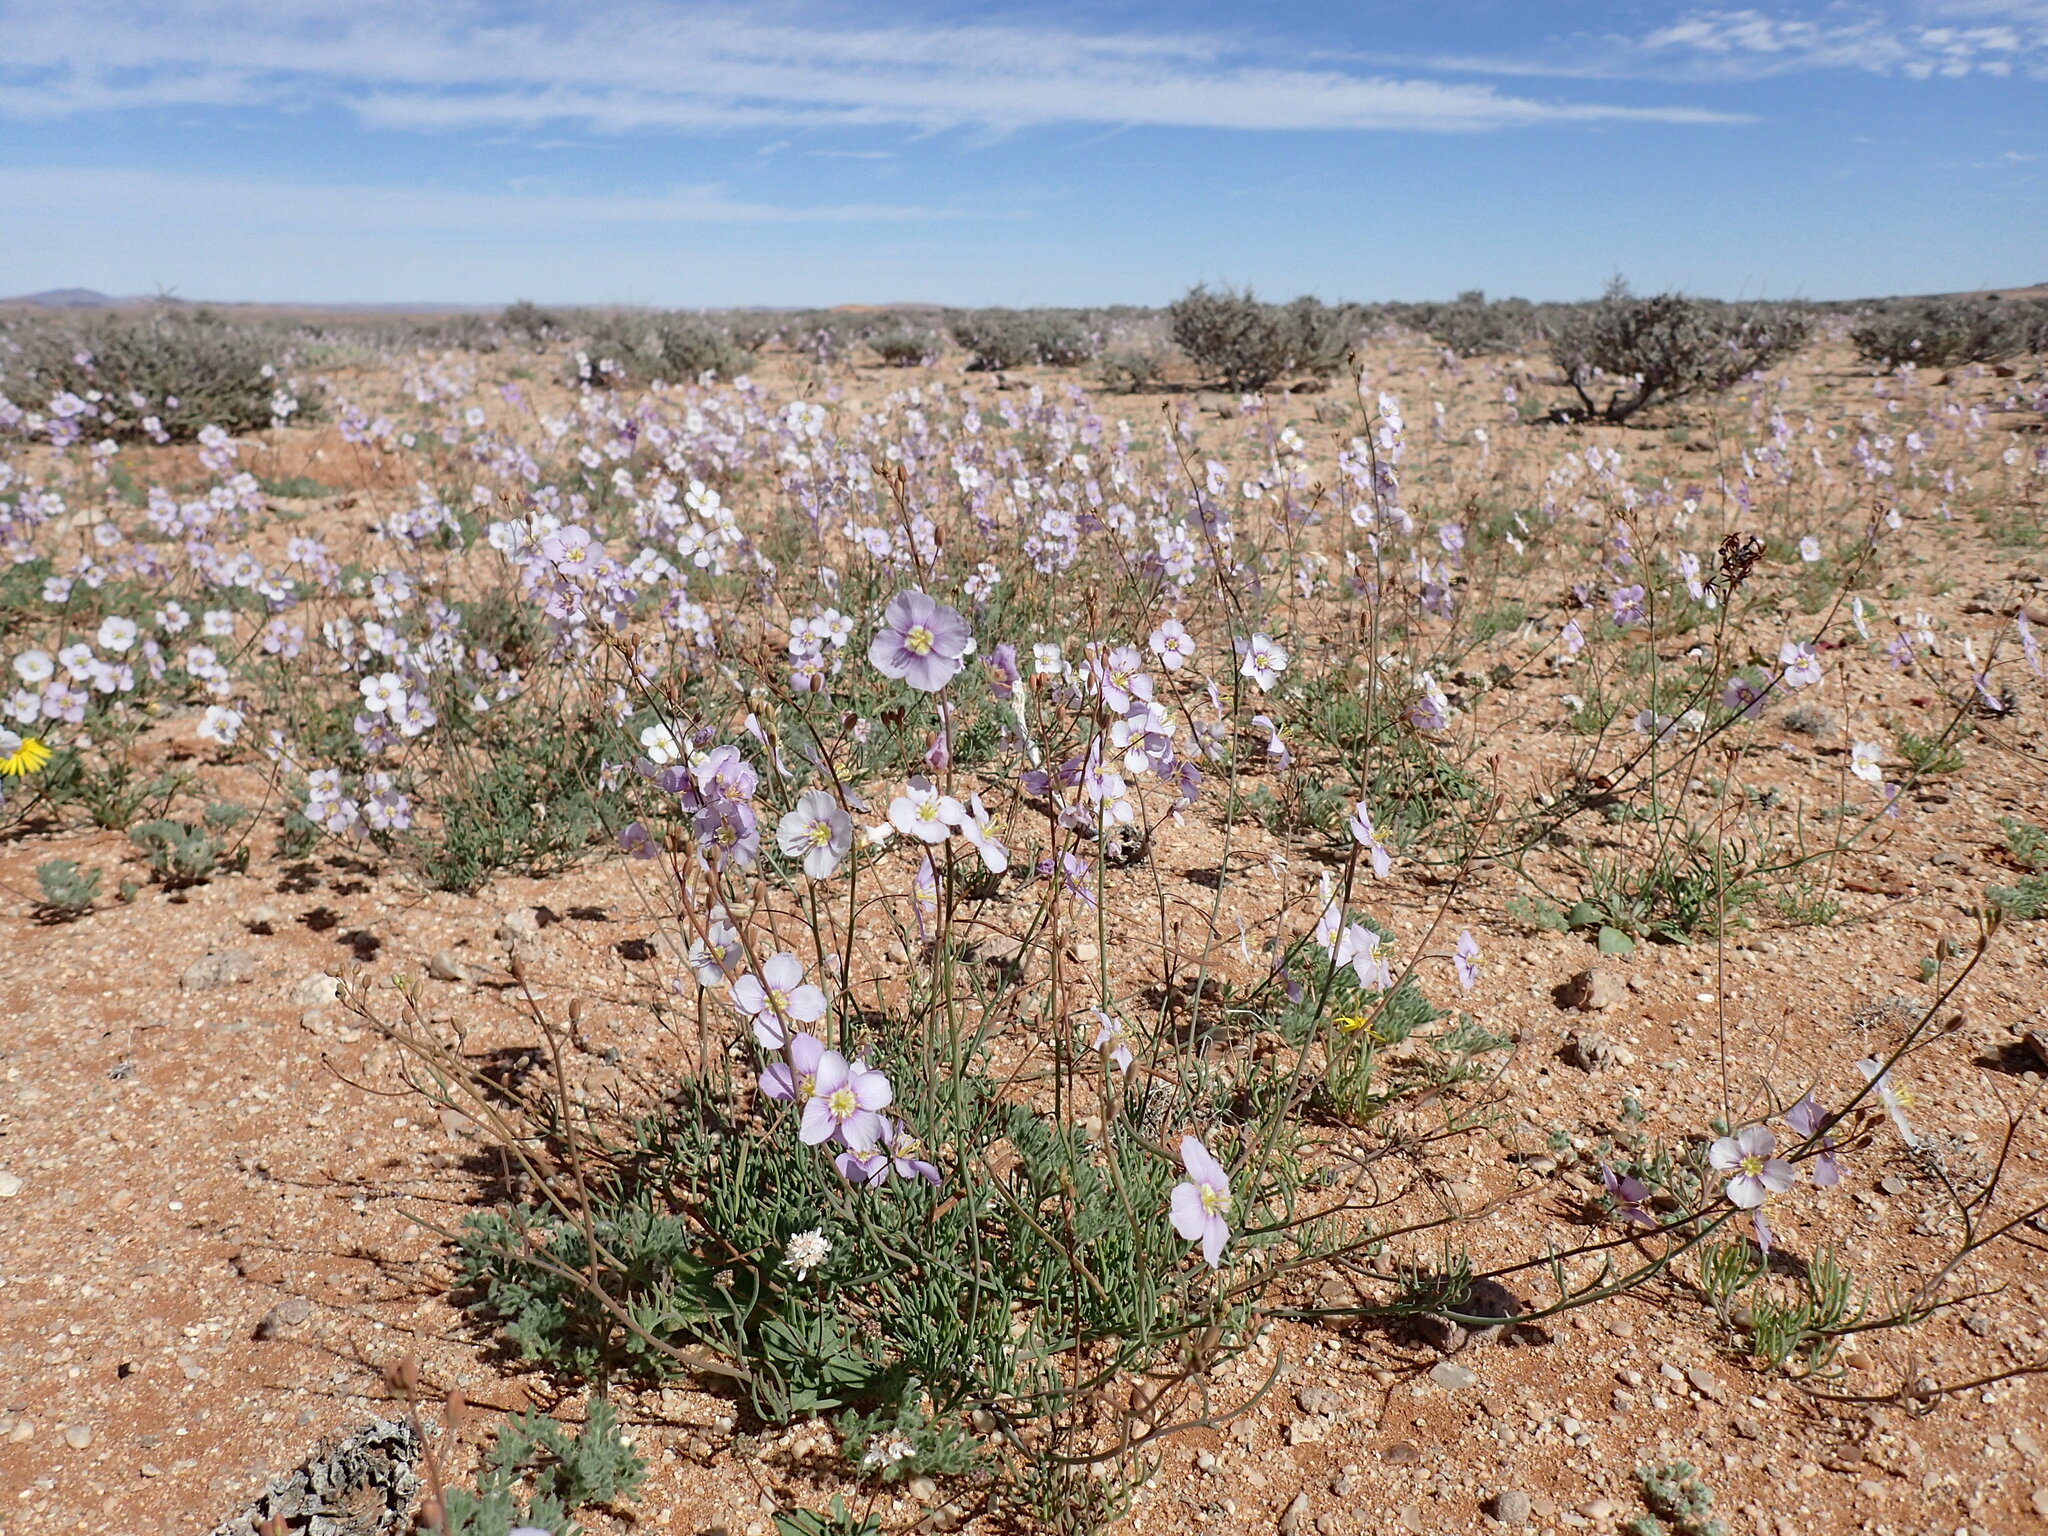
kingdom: Plantae
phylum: Tracheophyta
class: Magnoliopsida
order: Brassicales
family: Brassicaceae
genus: Heliophila
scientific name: Heliophila deserticola
